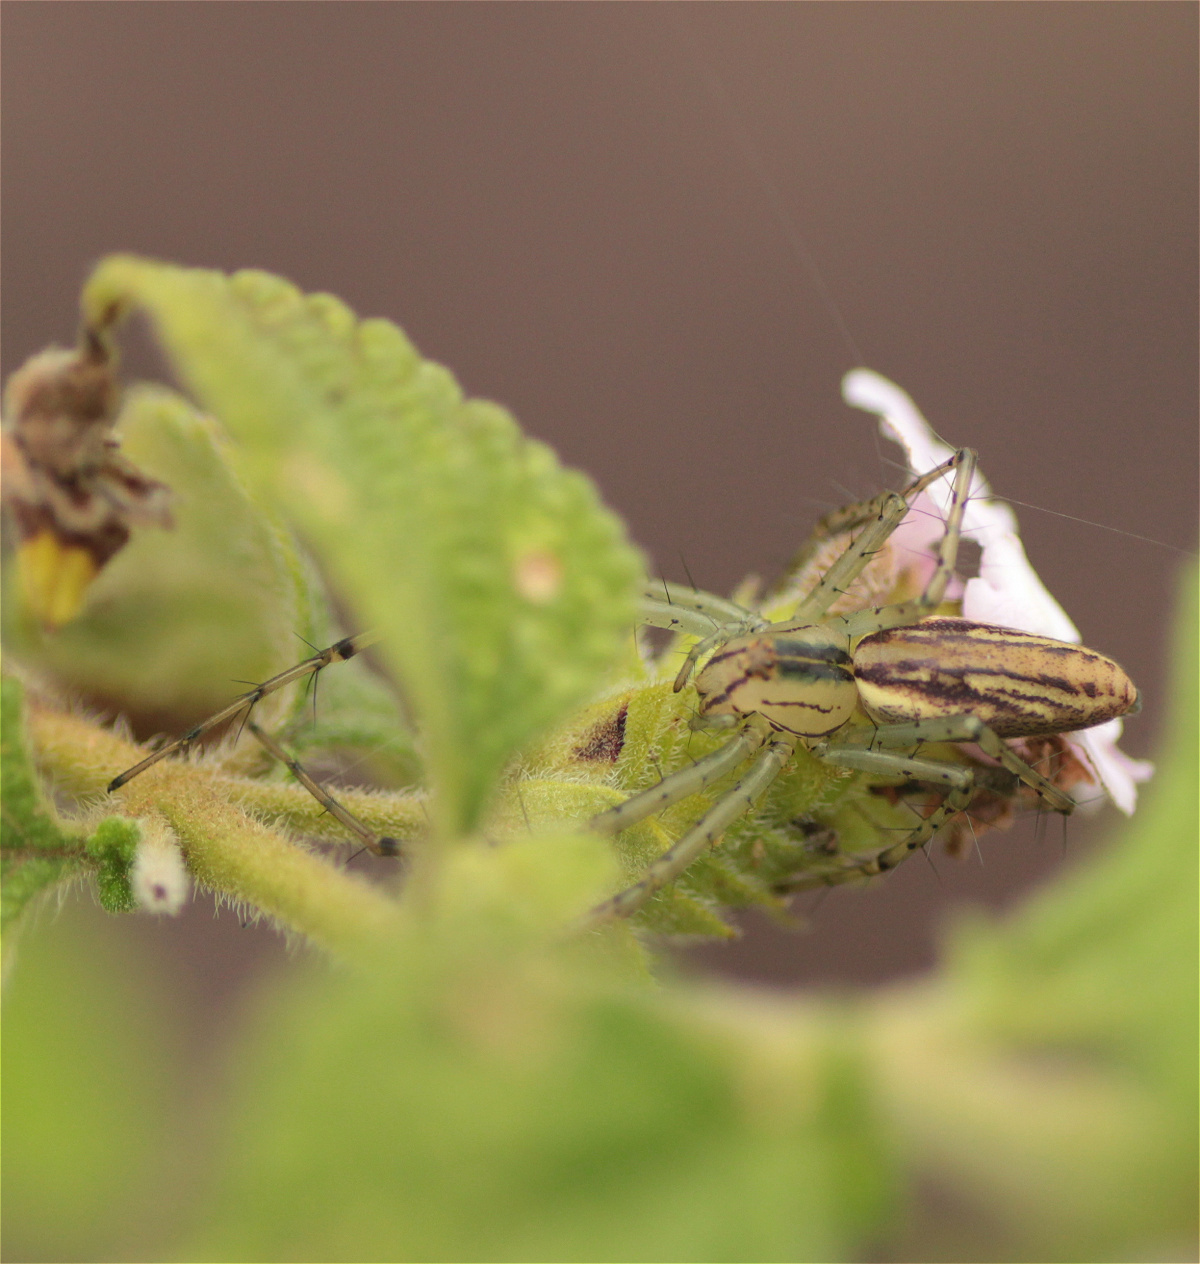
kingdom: Animalia
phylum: Arthropoda
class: Arachnida
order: Araneae
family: Oxyopidae
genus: Peucetia
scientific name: Peucetia rubrolineata
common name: Lynx spiders
